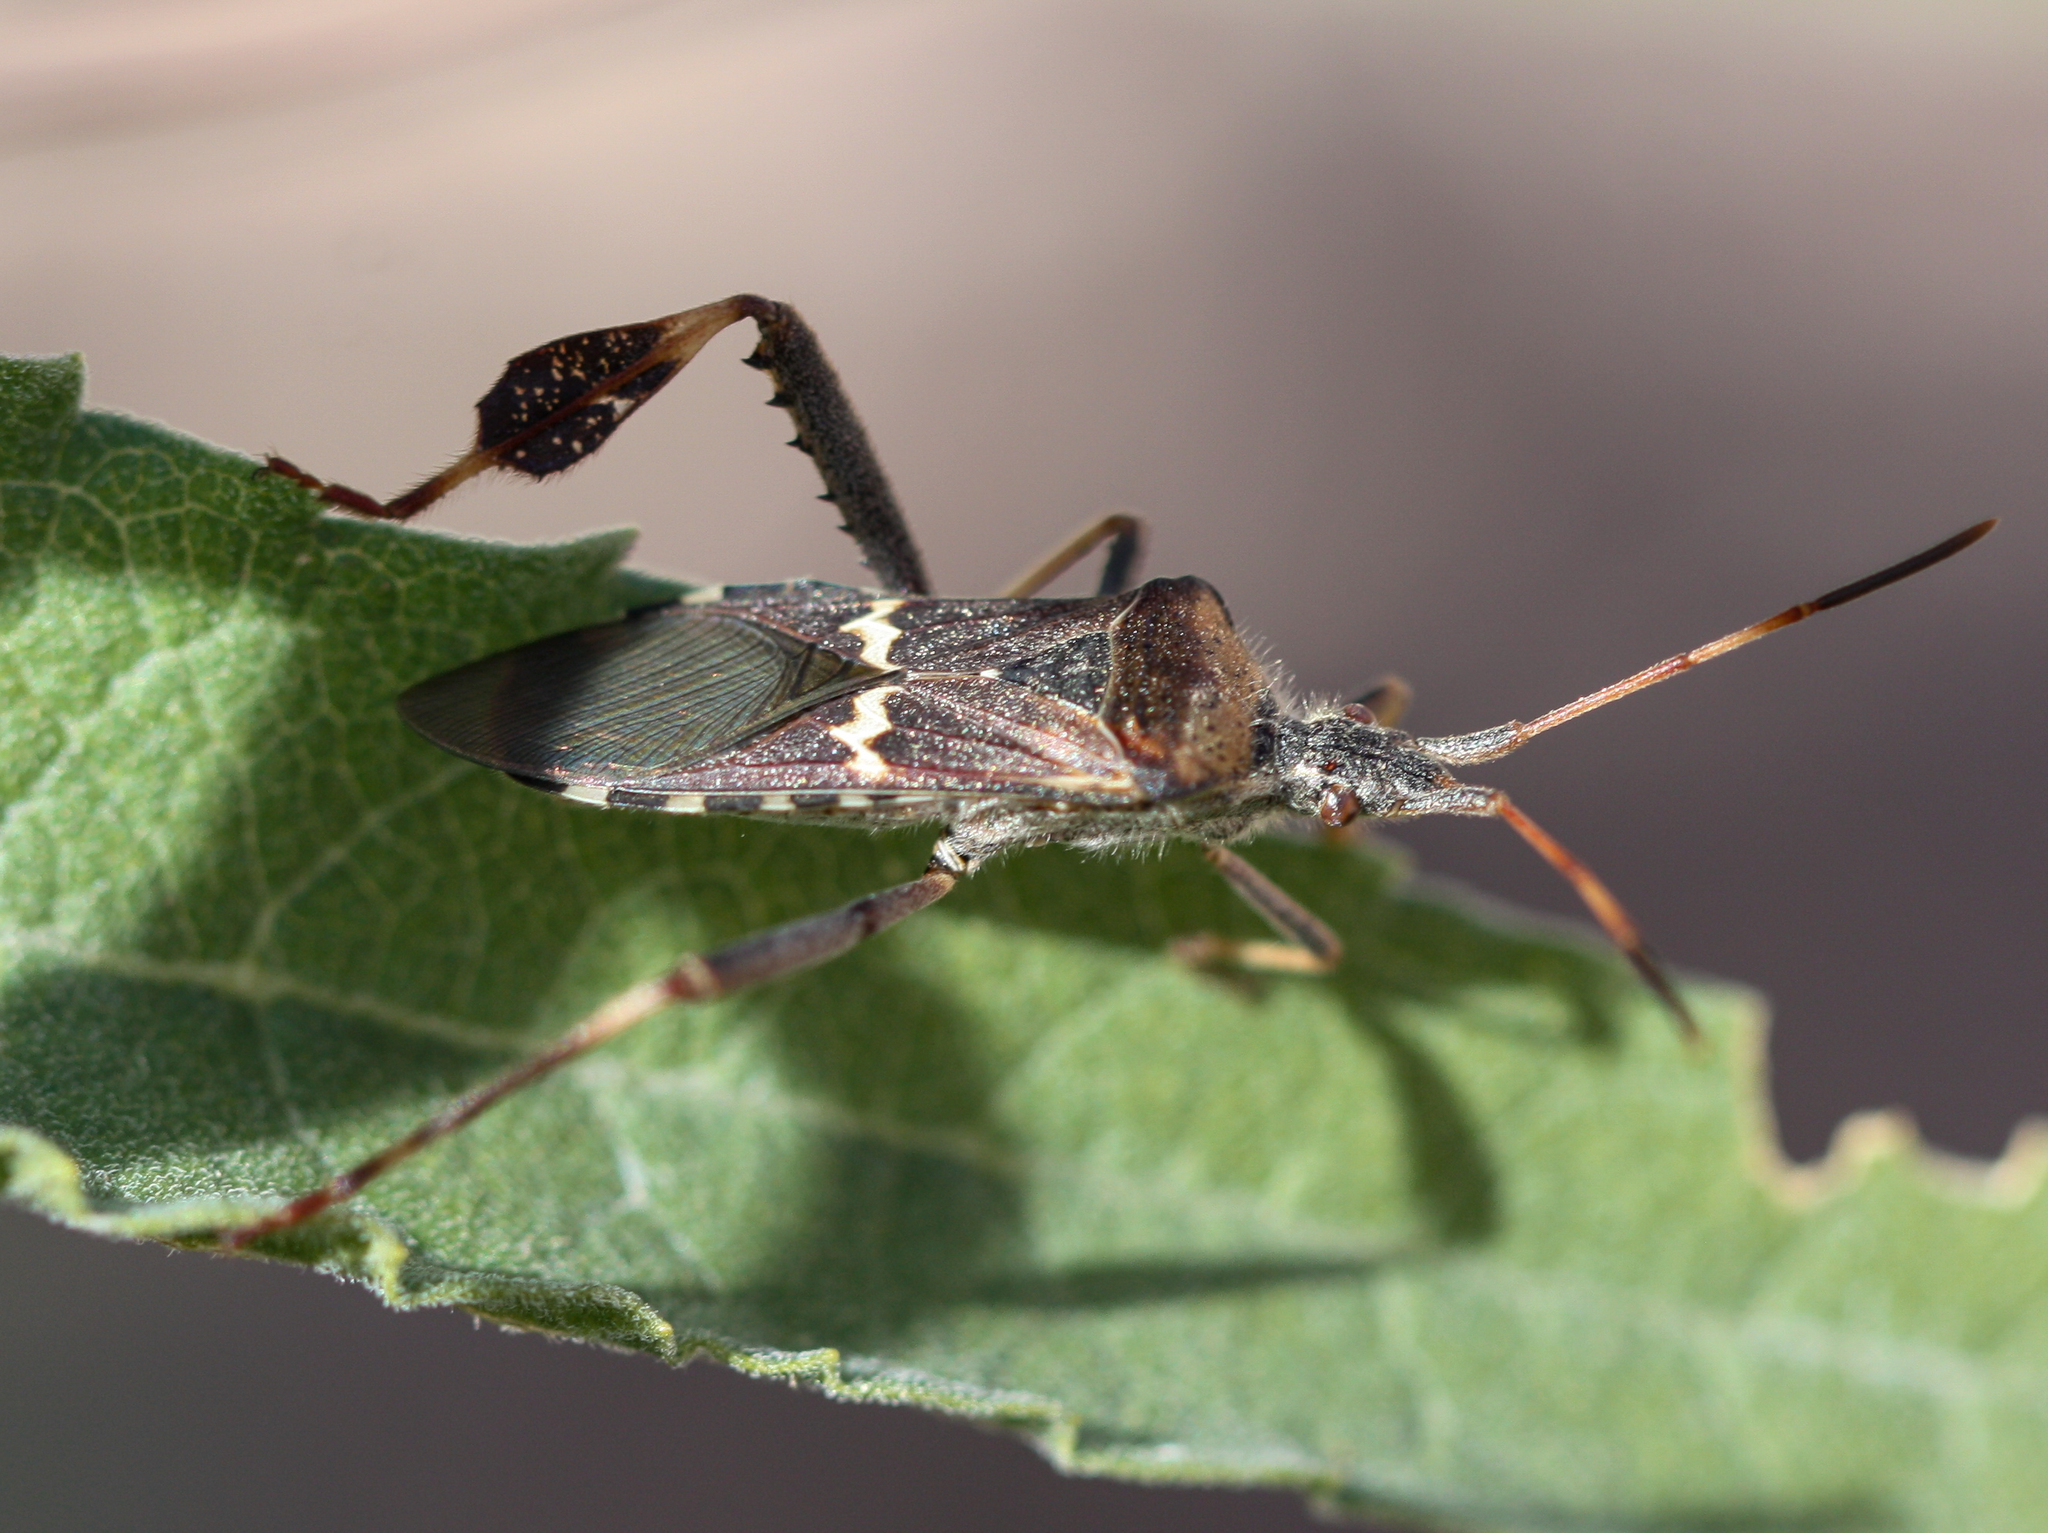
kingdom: Animalia
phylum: Arthropoda
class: Insecta
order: Hemiptera
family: Coreidae
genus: Leptoglossus
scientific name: Leptoglossus clypealis
